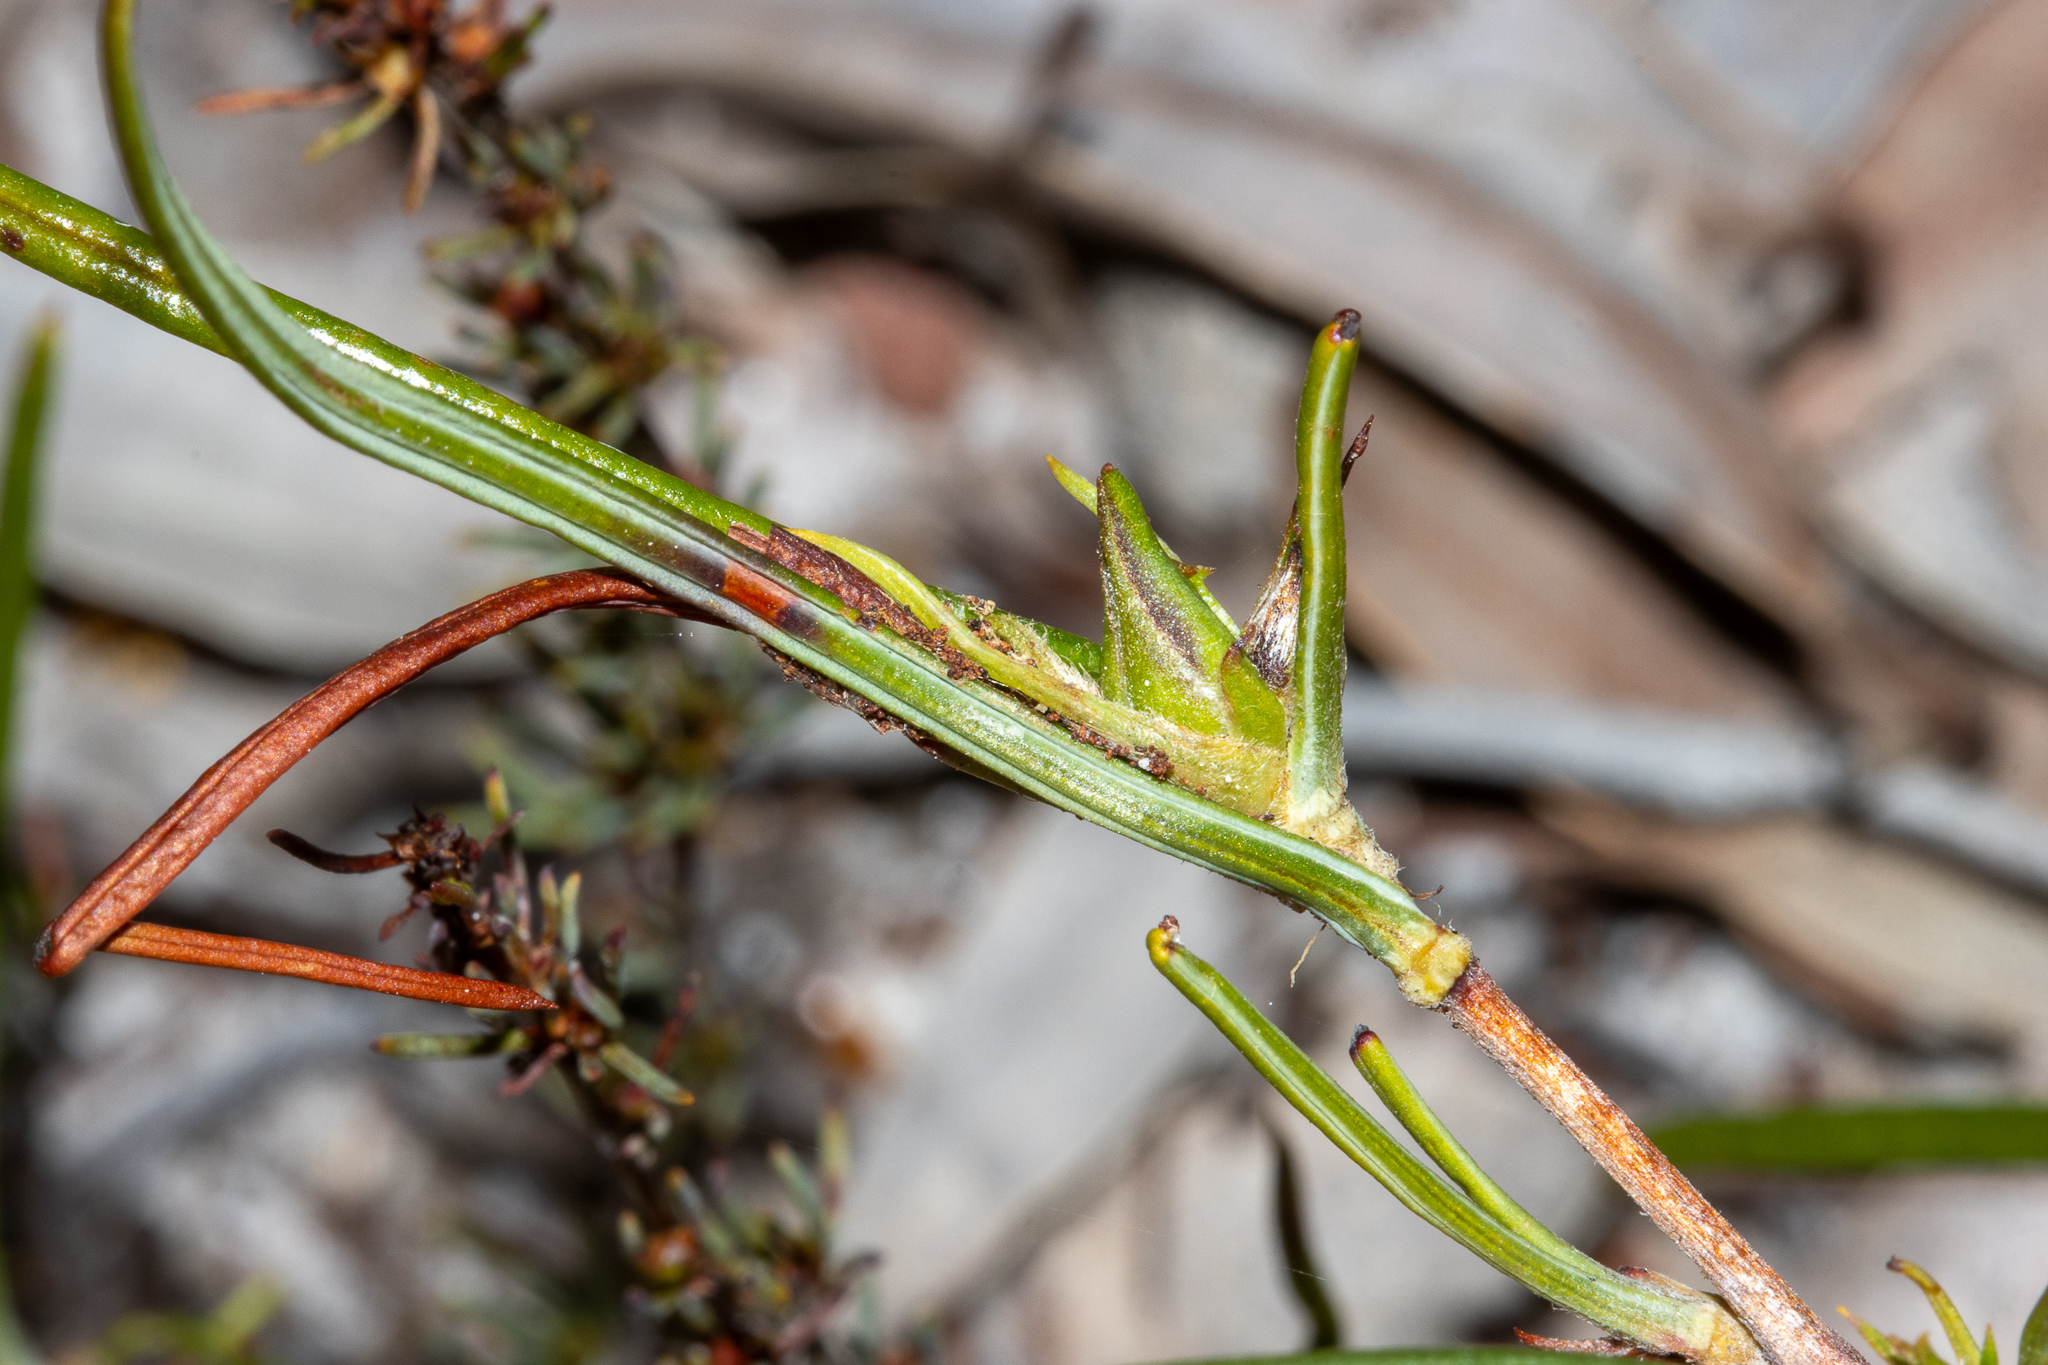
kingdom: Plantae
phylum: Tracheophyta
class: Magnoliopsida
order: Dilleniales
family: Dilleniaceae
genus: Hibbertia
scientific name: Hibbertia striata
